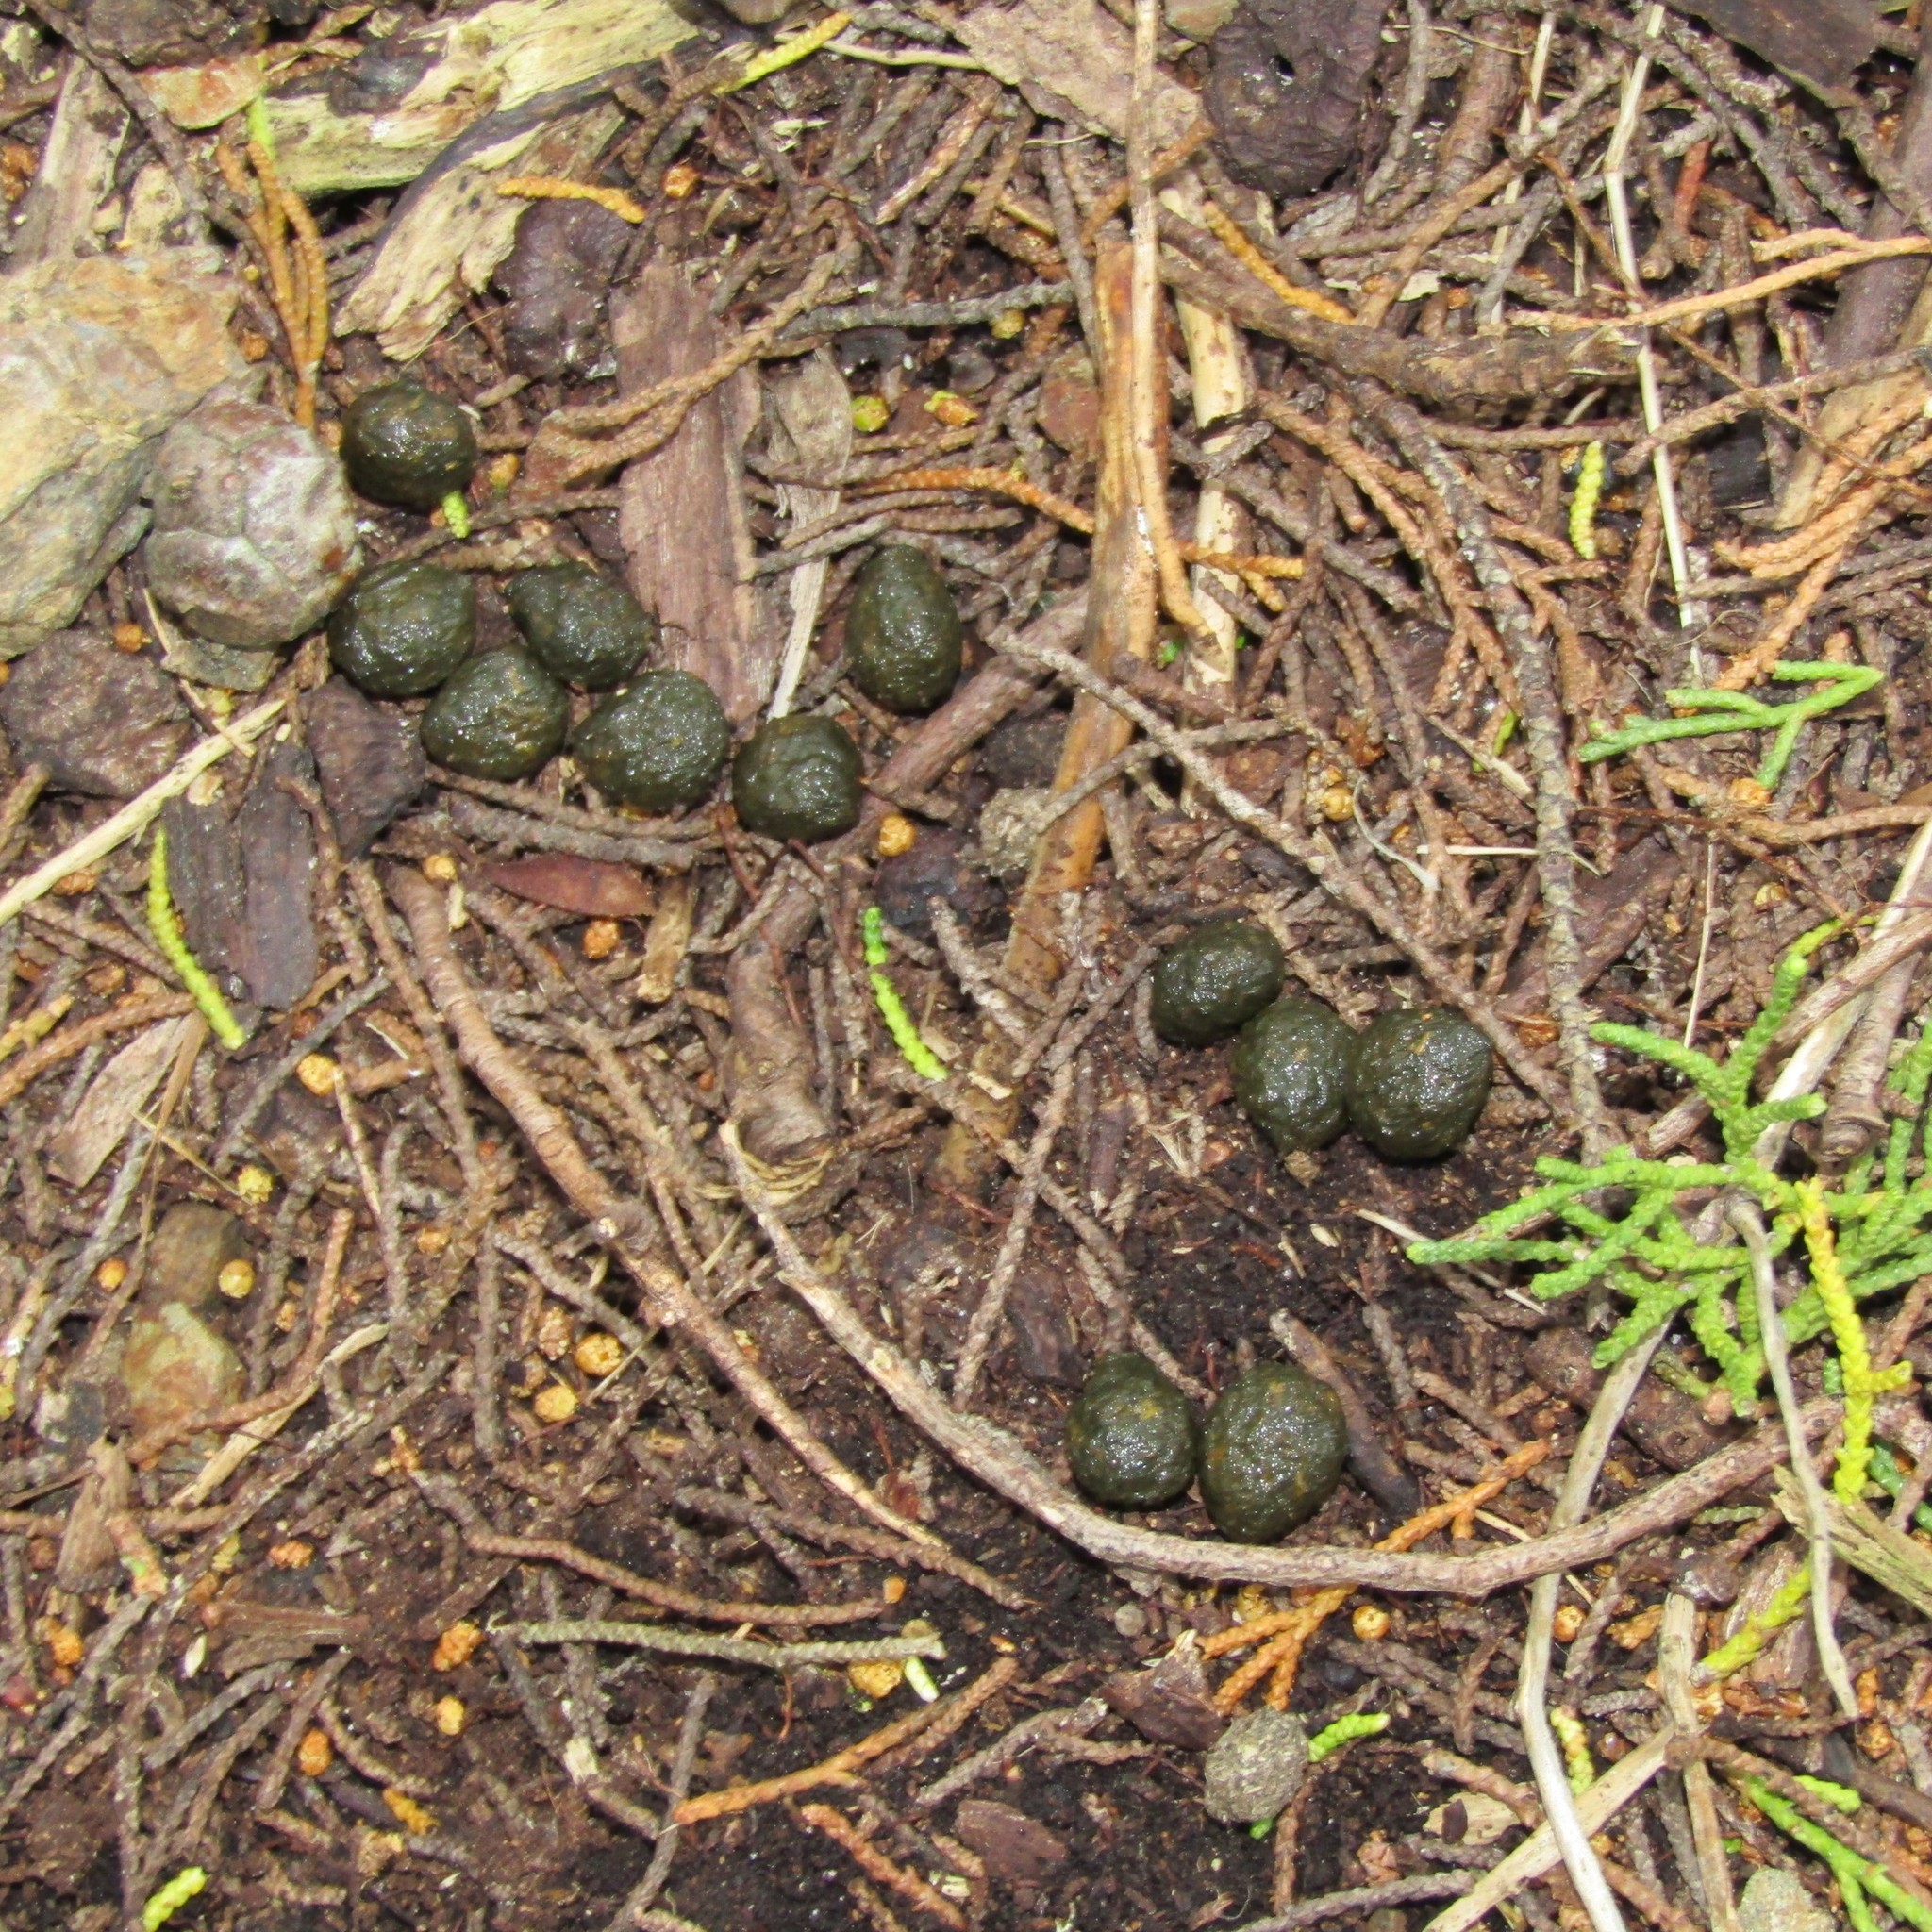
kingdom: Animalia
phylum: Chordata
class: Mammalia
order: Lagomorpha
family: Leporidae
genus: Oryctolagus
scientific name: Oryctolagus cuniculus
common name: European rabbit
